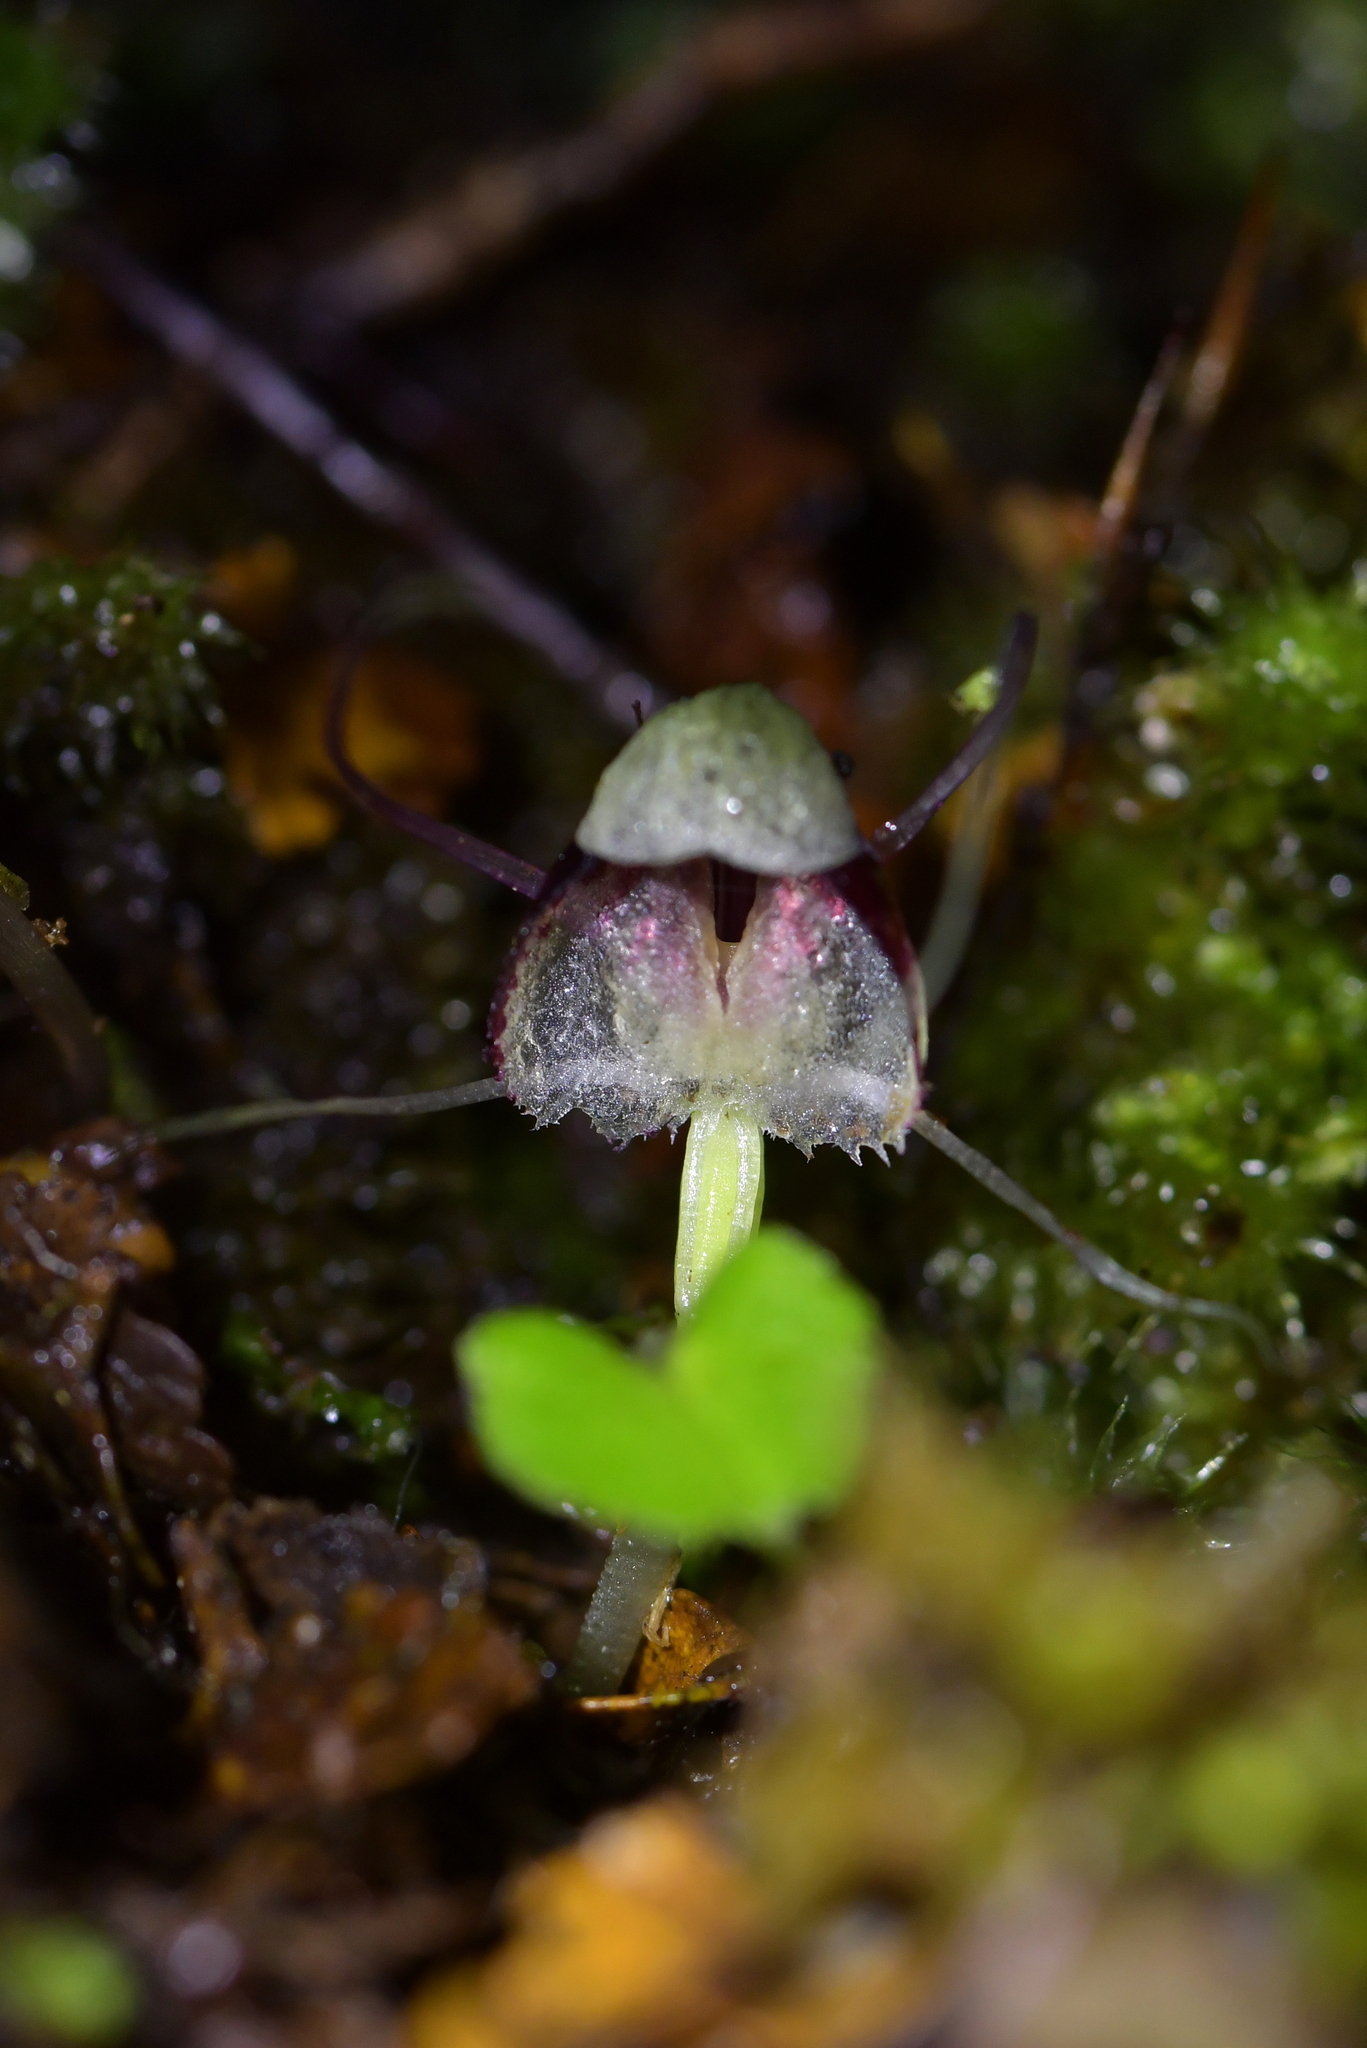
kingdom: Plantae
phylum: Tracheophyta
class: Liliopsida
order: Asparagales
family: Orchidaceae
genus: Corybas
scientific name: Corybas vitreus
